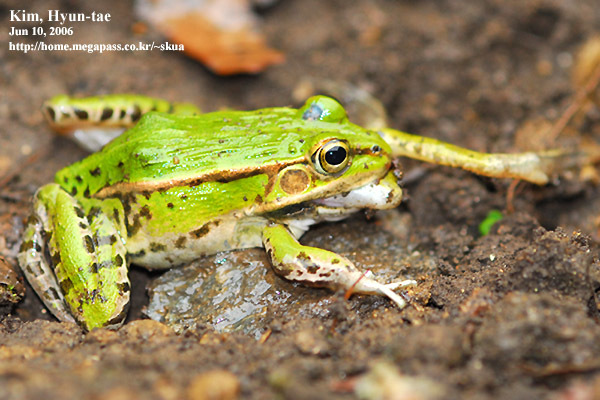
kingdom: Animalia
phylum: Chordata
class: Amphibia
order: Anura
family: Ranidae
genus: Pelophylax
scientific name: Pelophylax nigromaculatus
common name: Black-spotted pond frog
